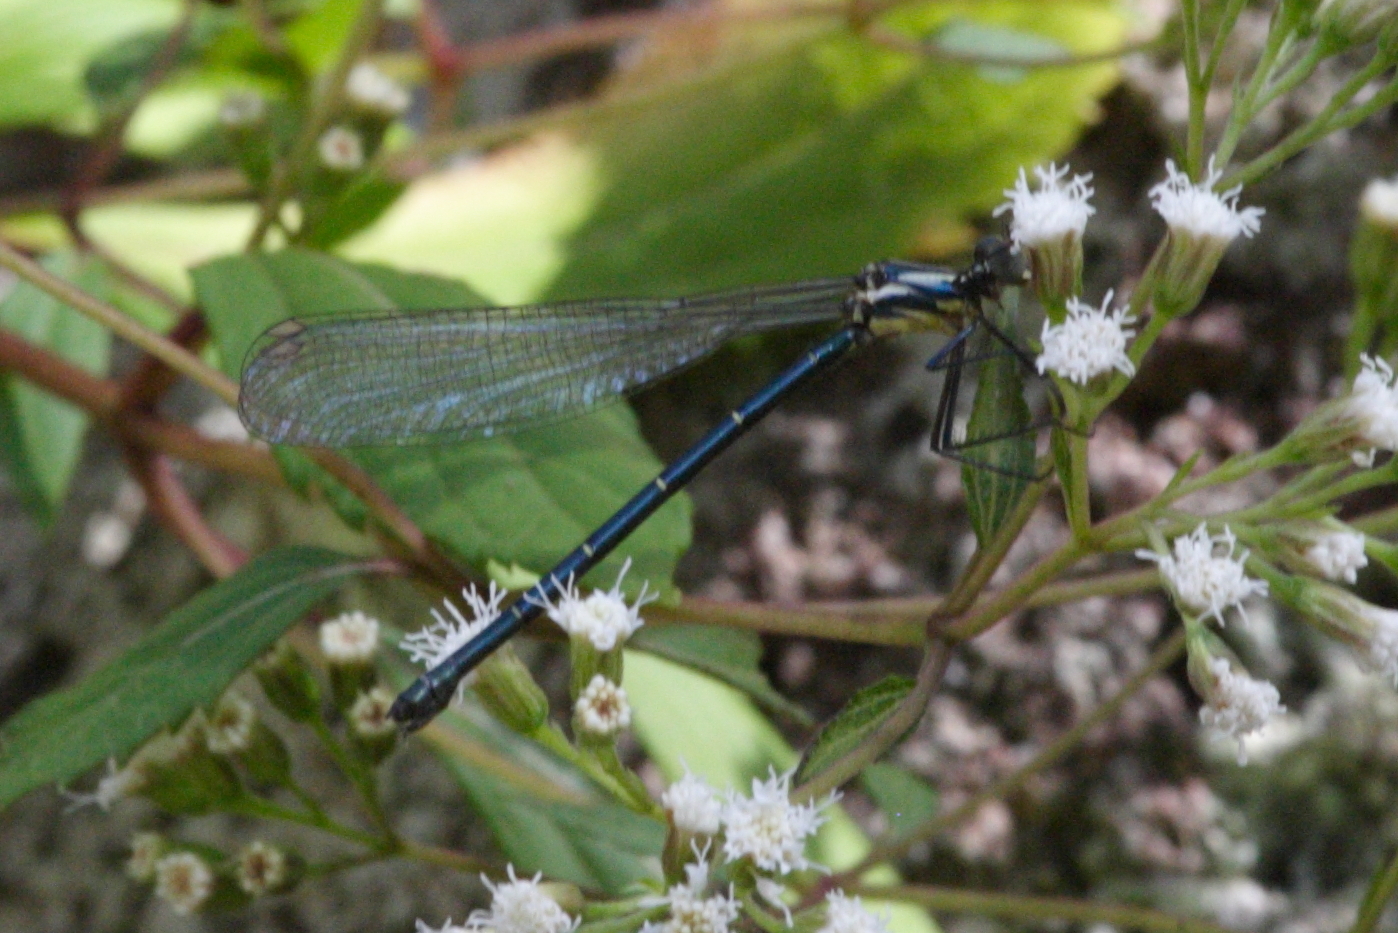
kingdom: Animalia
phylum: Arthropoda
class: Insecta
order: Odonata
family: Argiolestidae
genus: Austroargiolestes
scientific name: Austroargiolestes icteromelas
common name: Common flatwing
